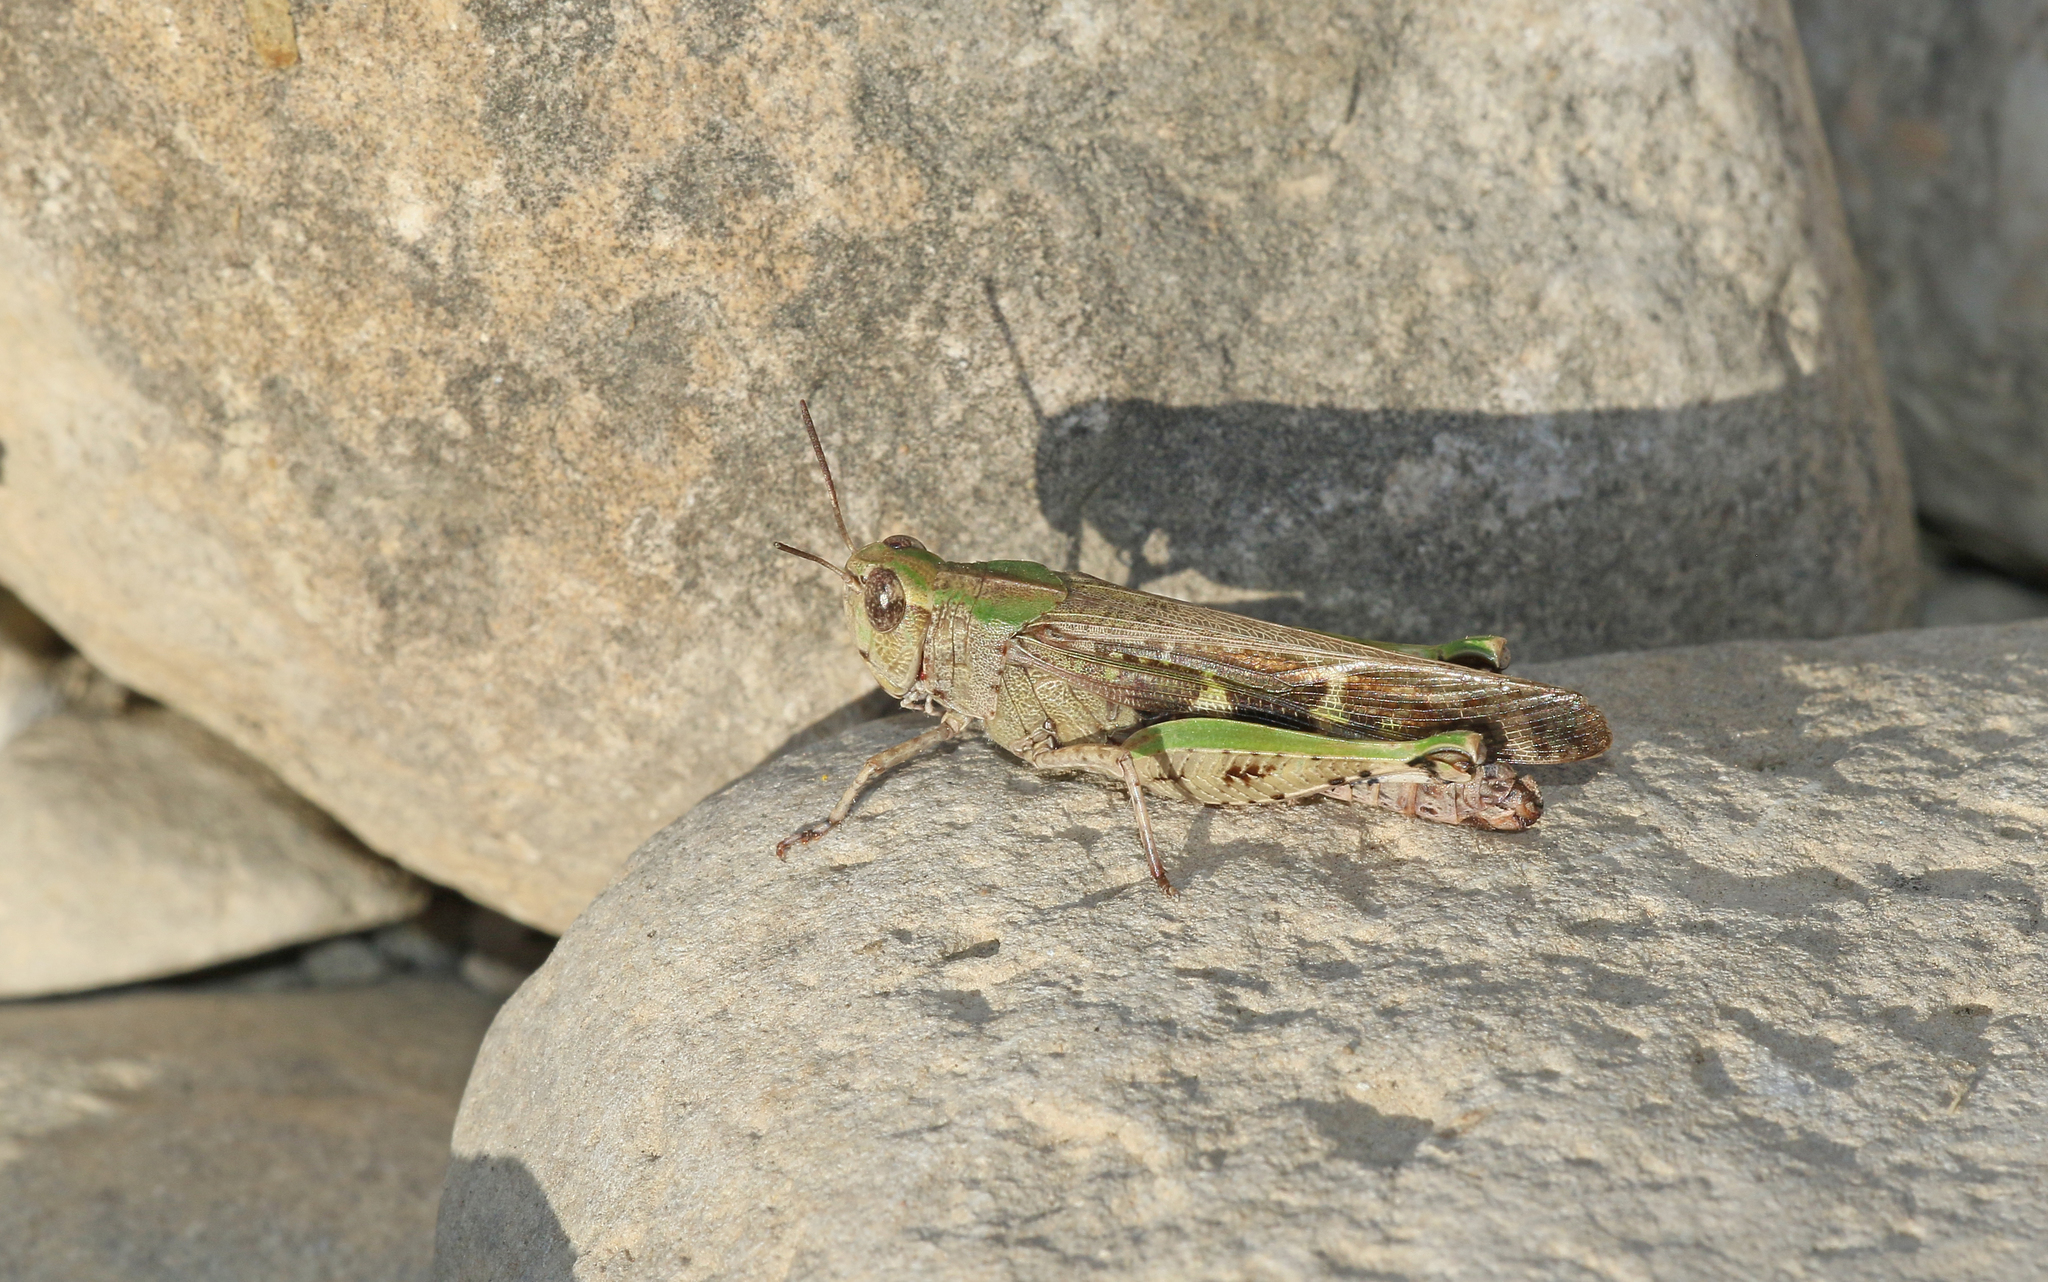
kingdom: Animalia
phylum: Arthropoda
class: Insecta
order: Orthoptera
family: Acrididae
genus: Aiolopus
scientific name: Aiolopus strepens
